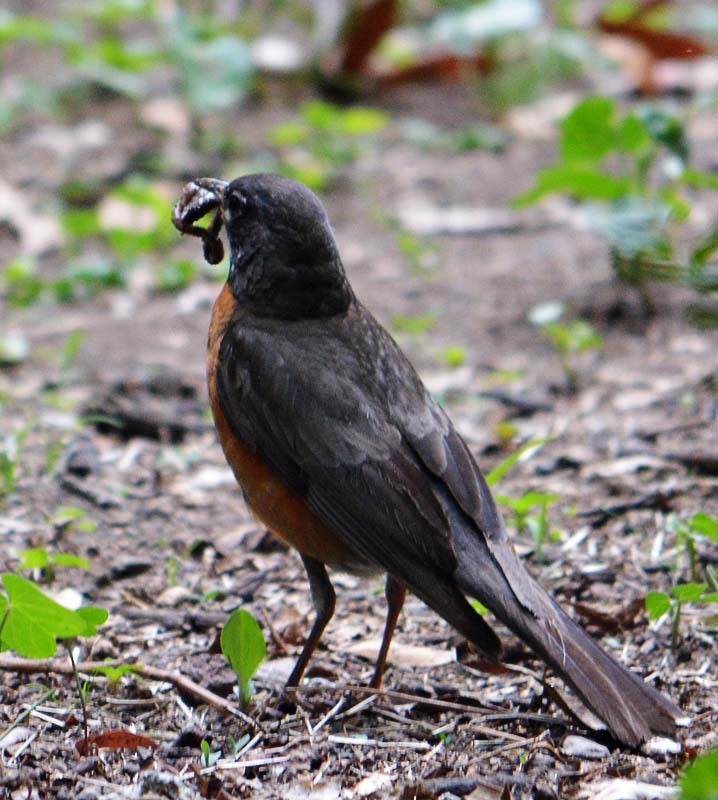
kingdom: Animalia
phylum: Chordata
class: Aves
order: Passeriformes
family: Turdidae
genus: Turdus
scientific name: Turdus migratorius
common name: American robin
